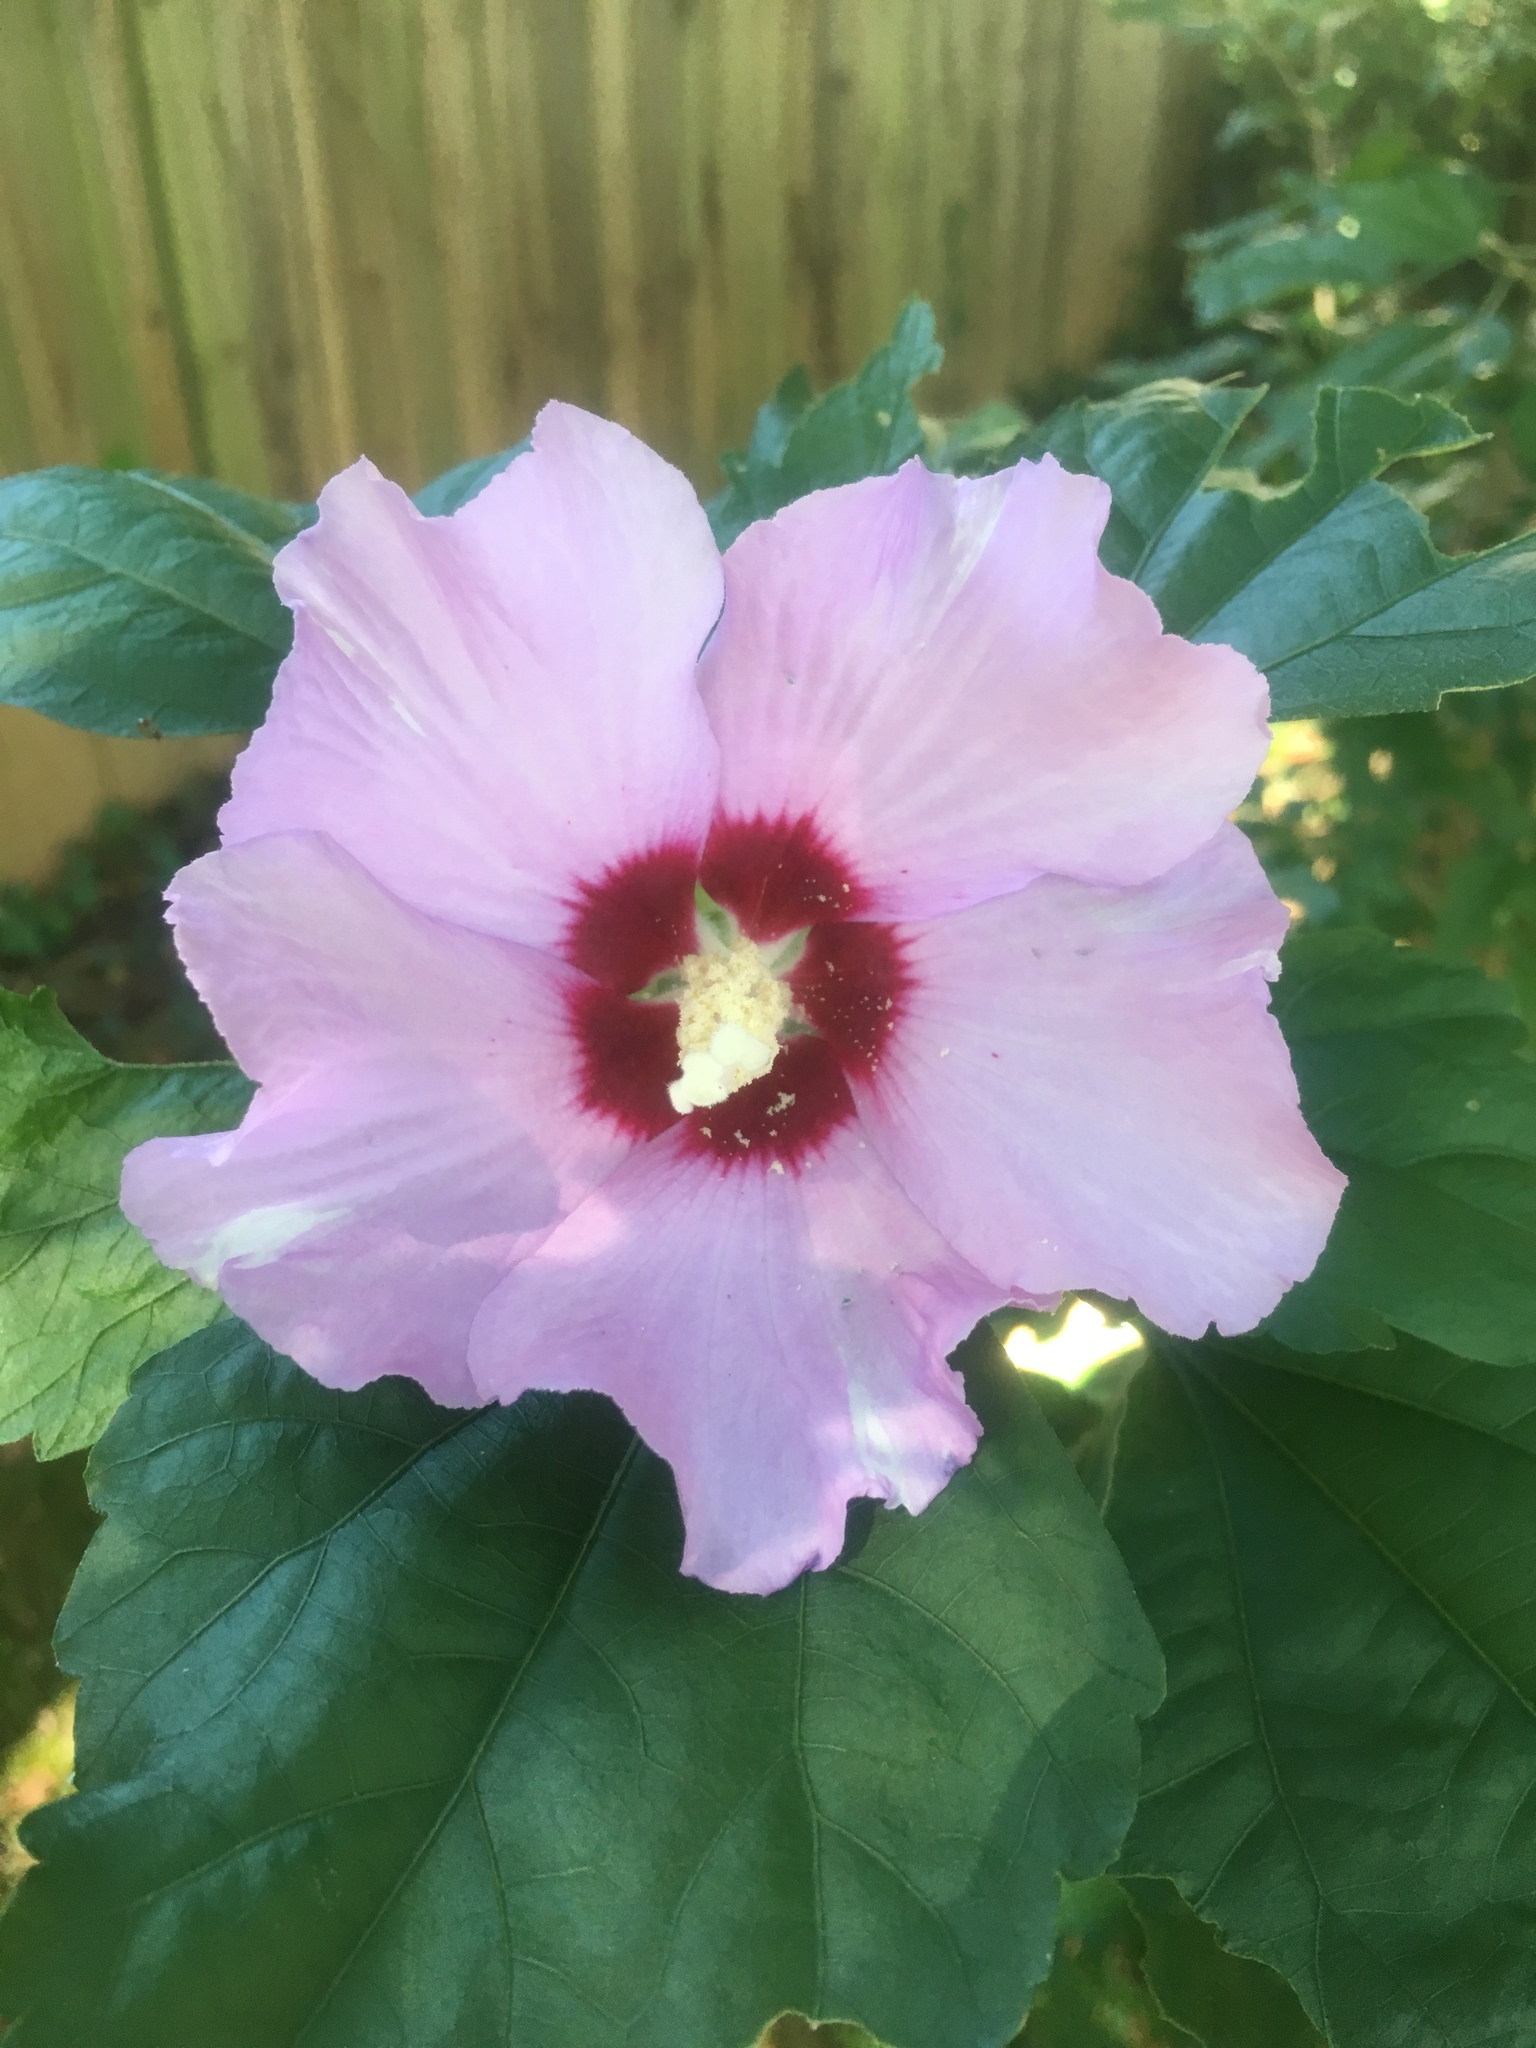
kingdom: Plantae
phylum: Tracheophyta
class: Magnoliopsida
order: Malvales
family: Malvaceae
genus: Hibiscus
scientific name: Hibiscus syriacus
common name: Syrian ketmia
